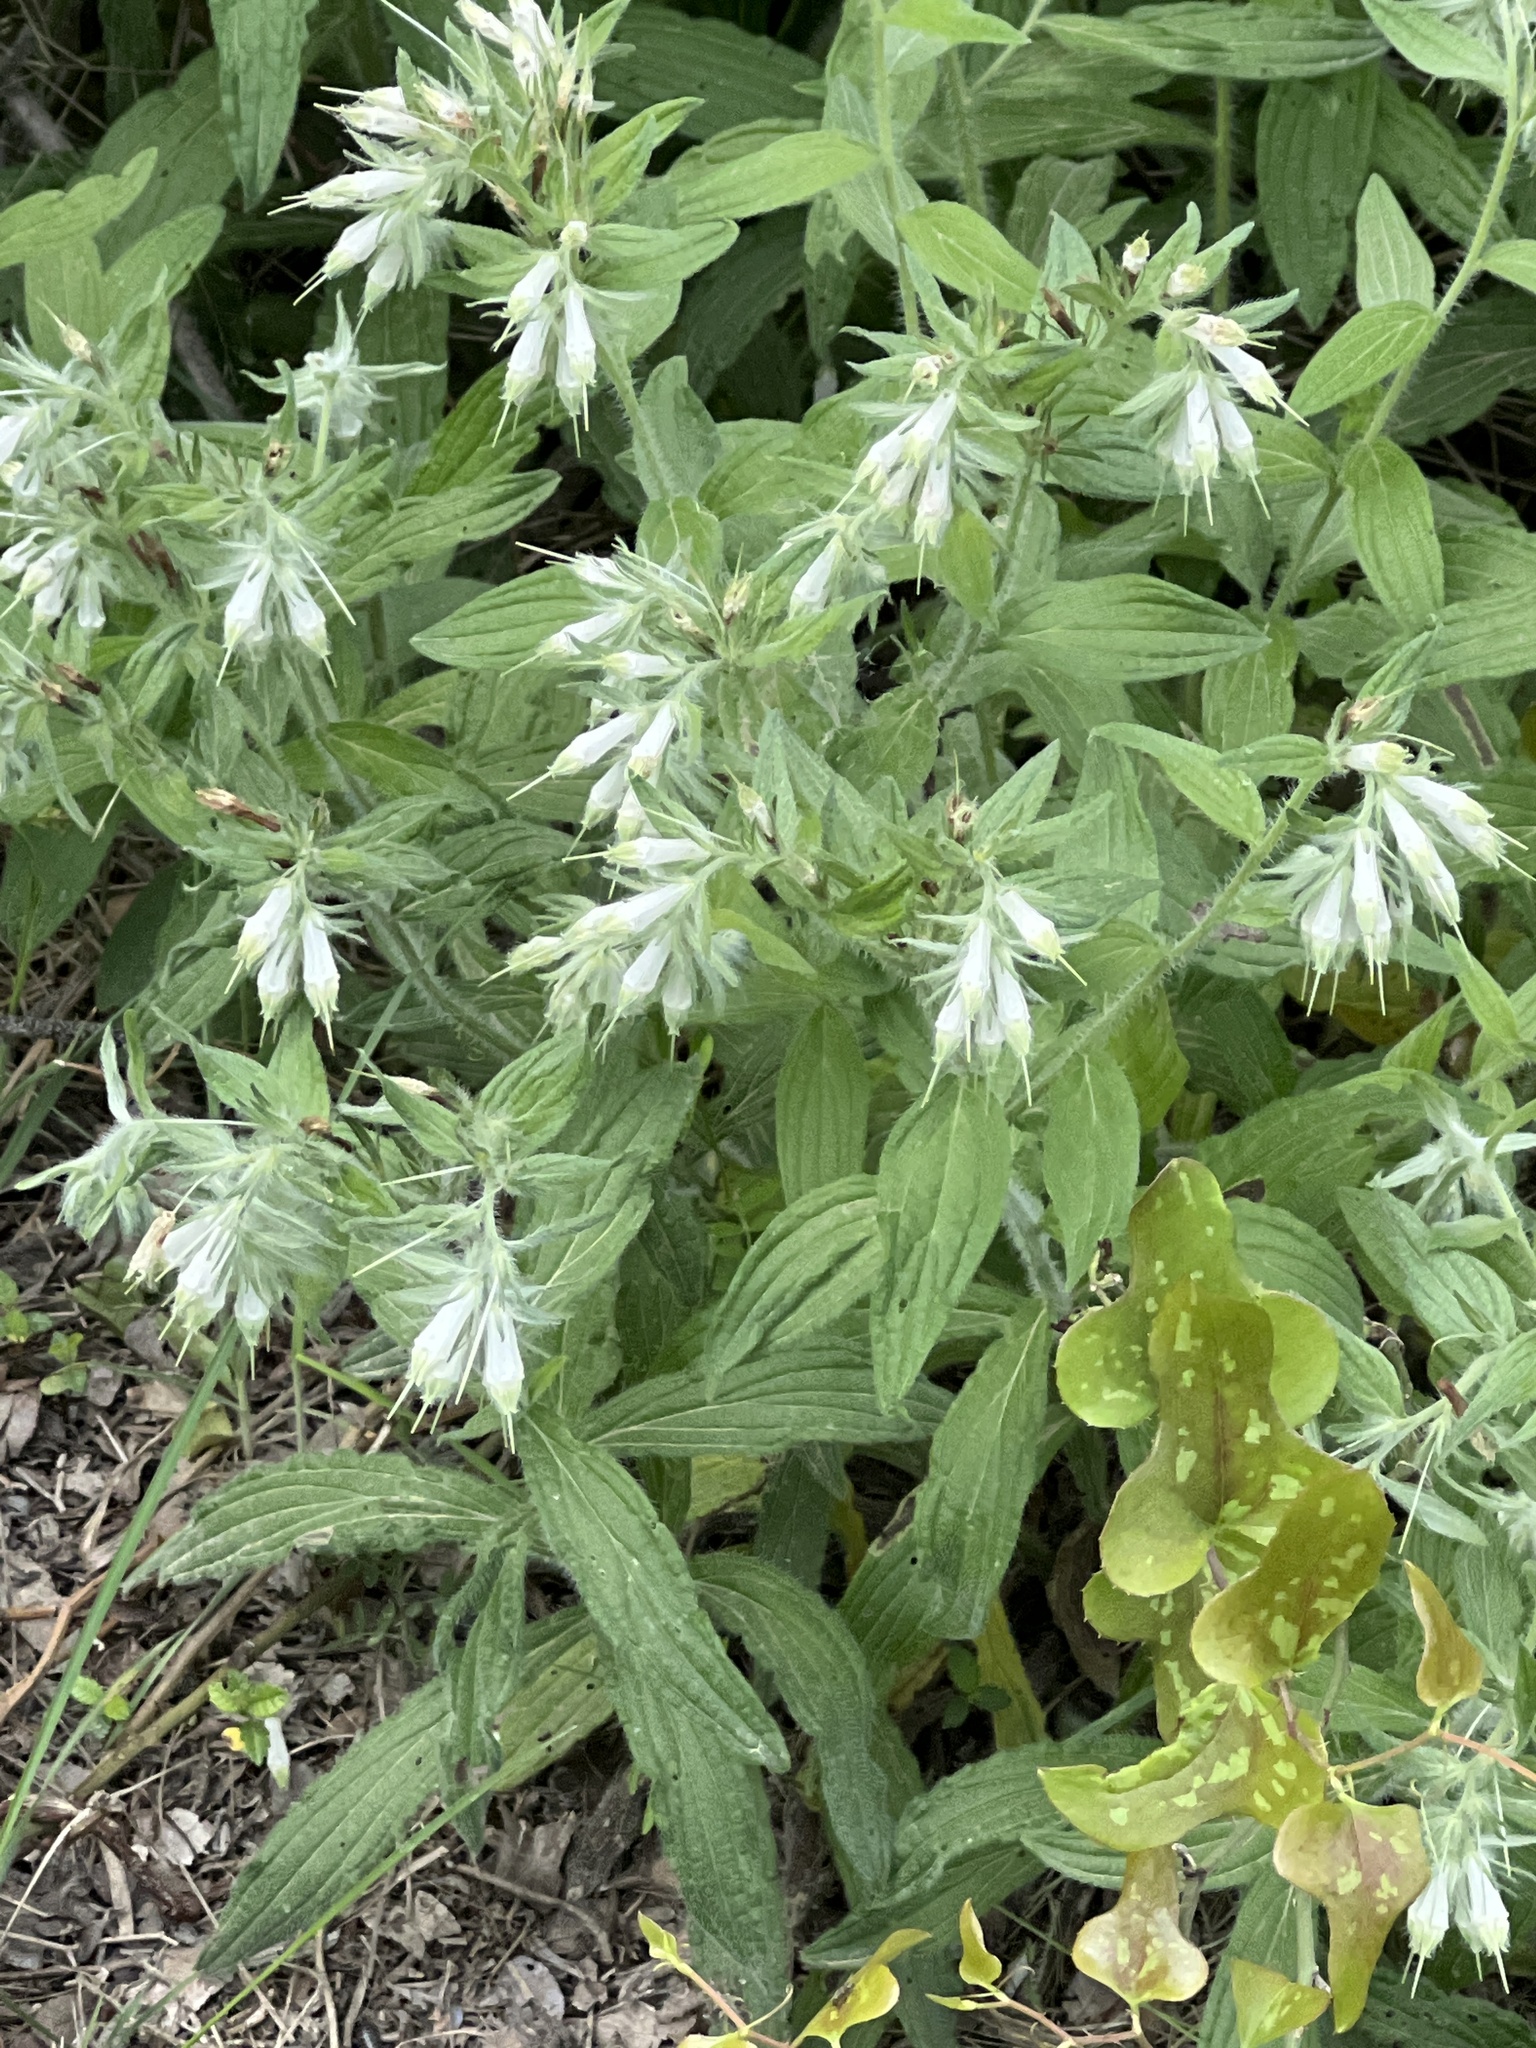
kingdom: Plantae
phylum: Tracheophyta
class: Magnoliopsida
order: Boraginales
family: Boraginaceae
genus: Lithospermum
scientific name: Lithospermum caroliniense
